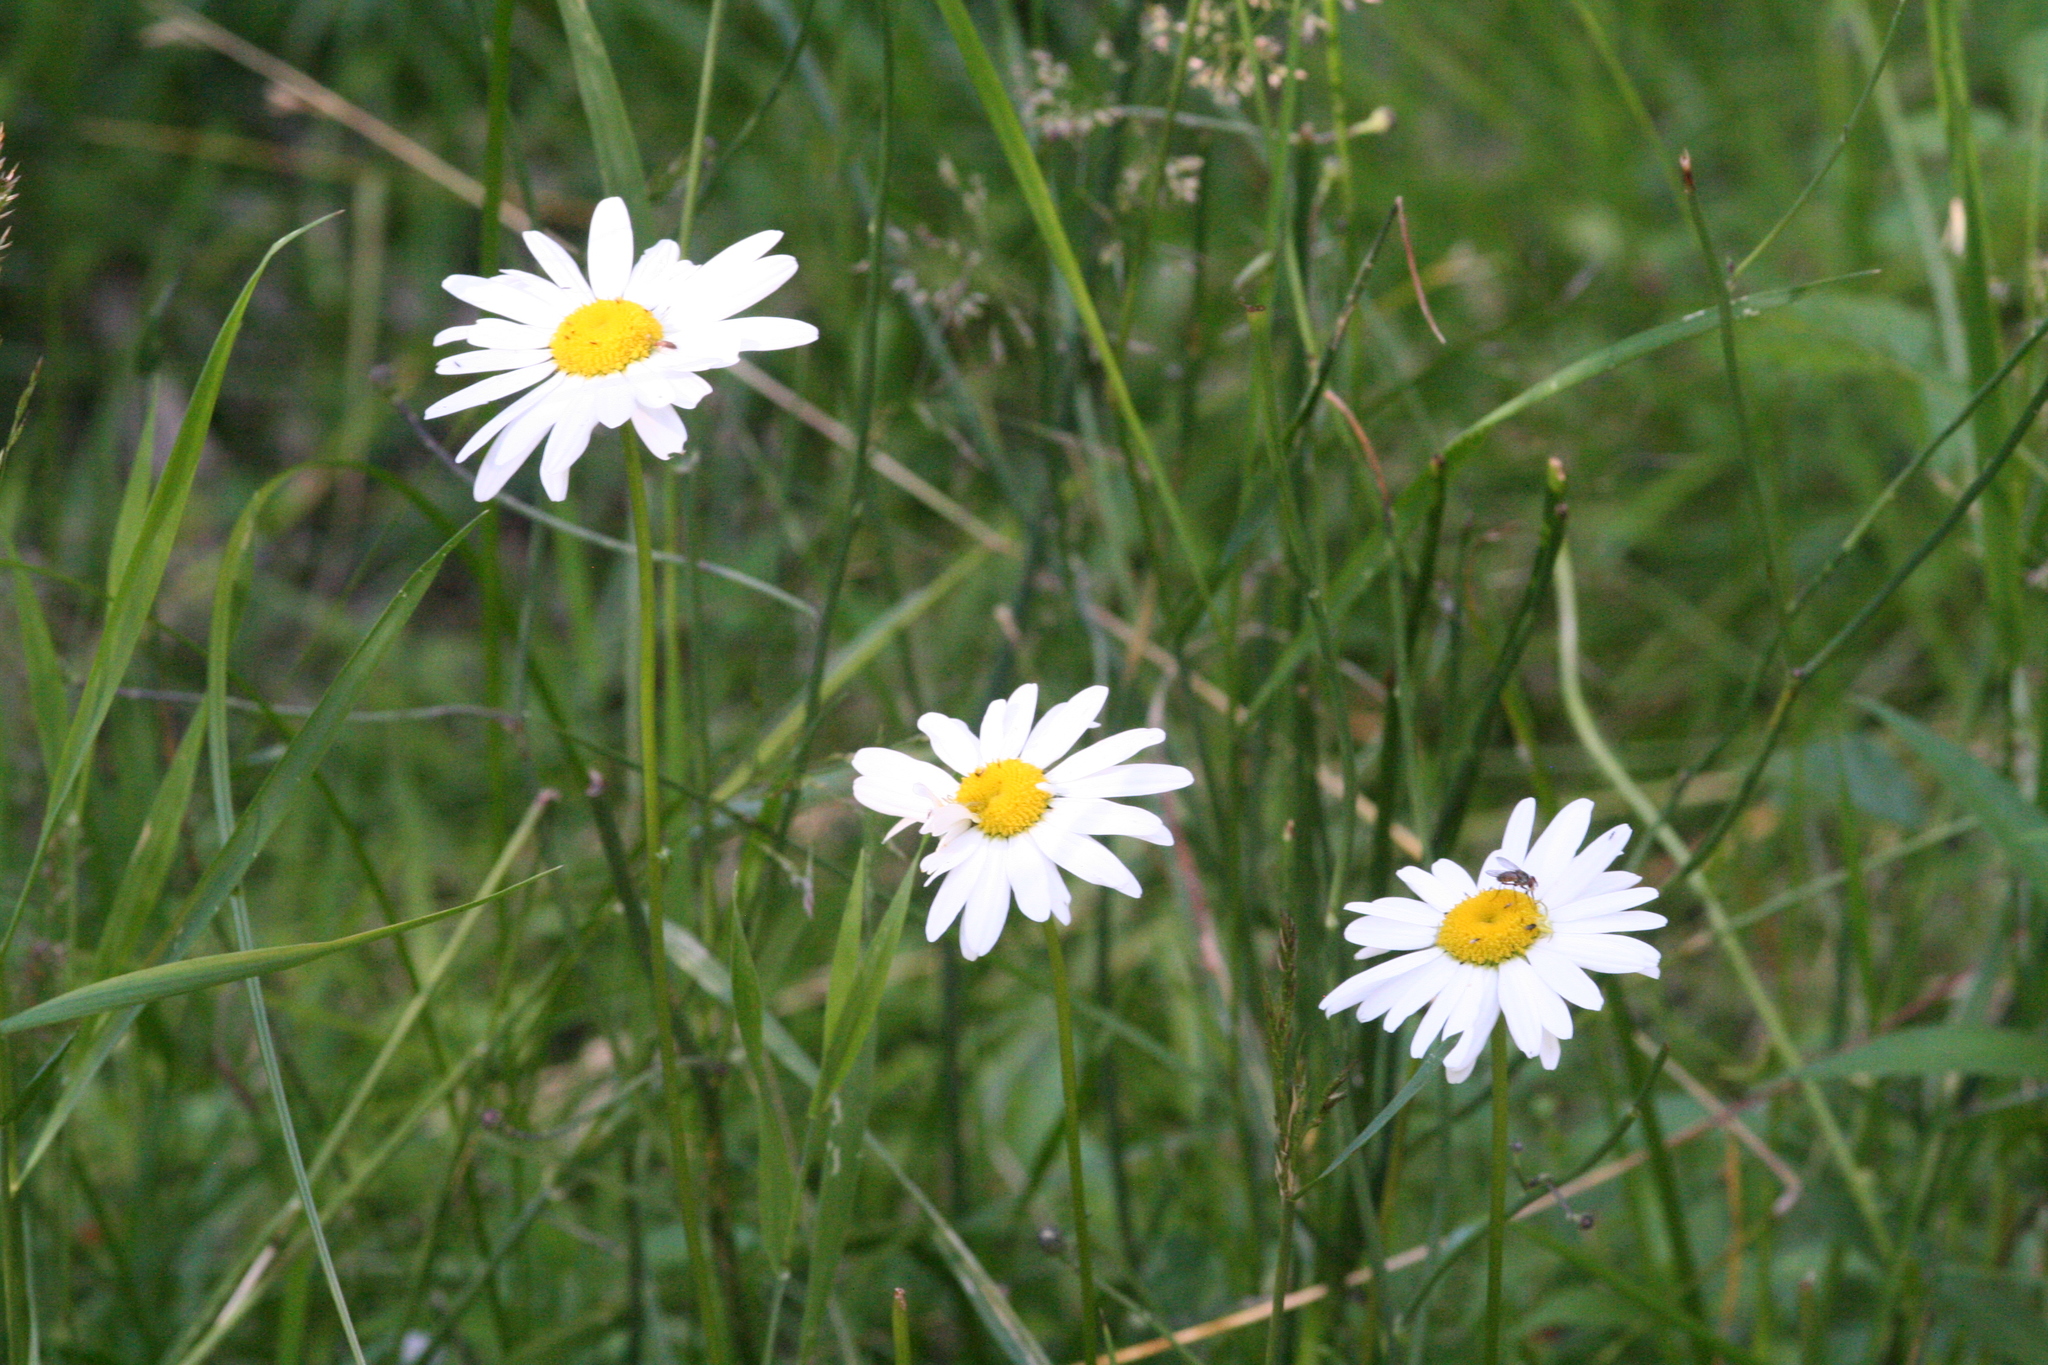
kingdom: Plantae
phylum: Tracheophyta
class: Magnoliopsida
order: Asterales
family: Asteraceae
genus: Leucanthemum
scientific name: Leucanthemum vulgare
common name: Oxeye daisy
